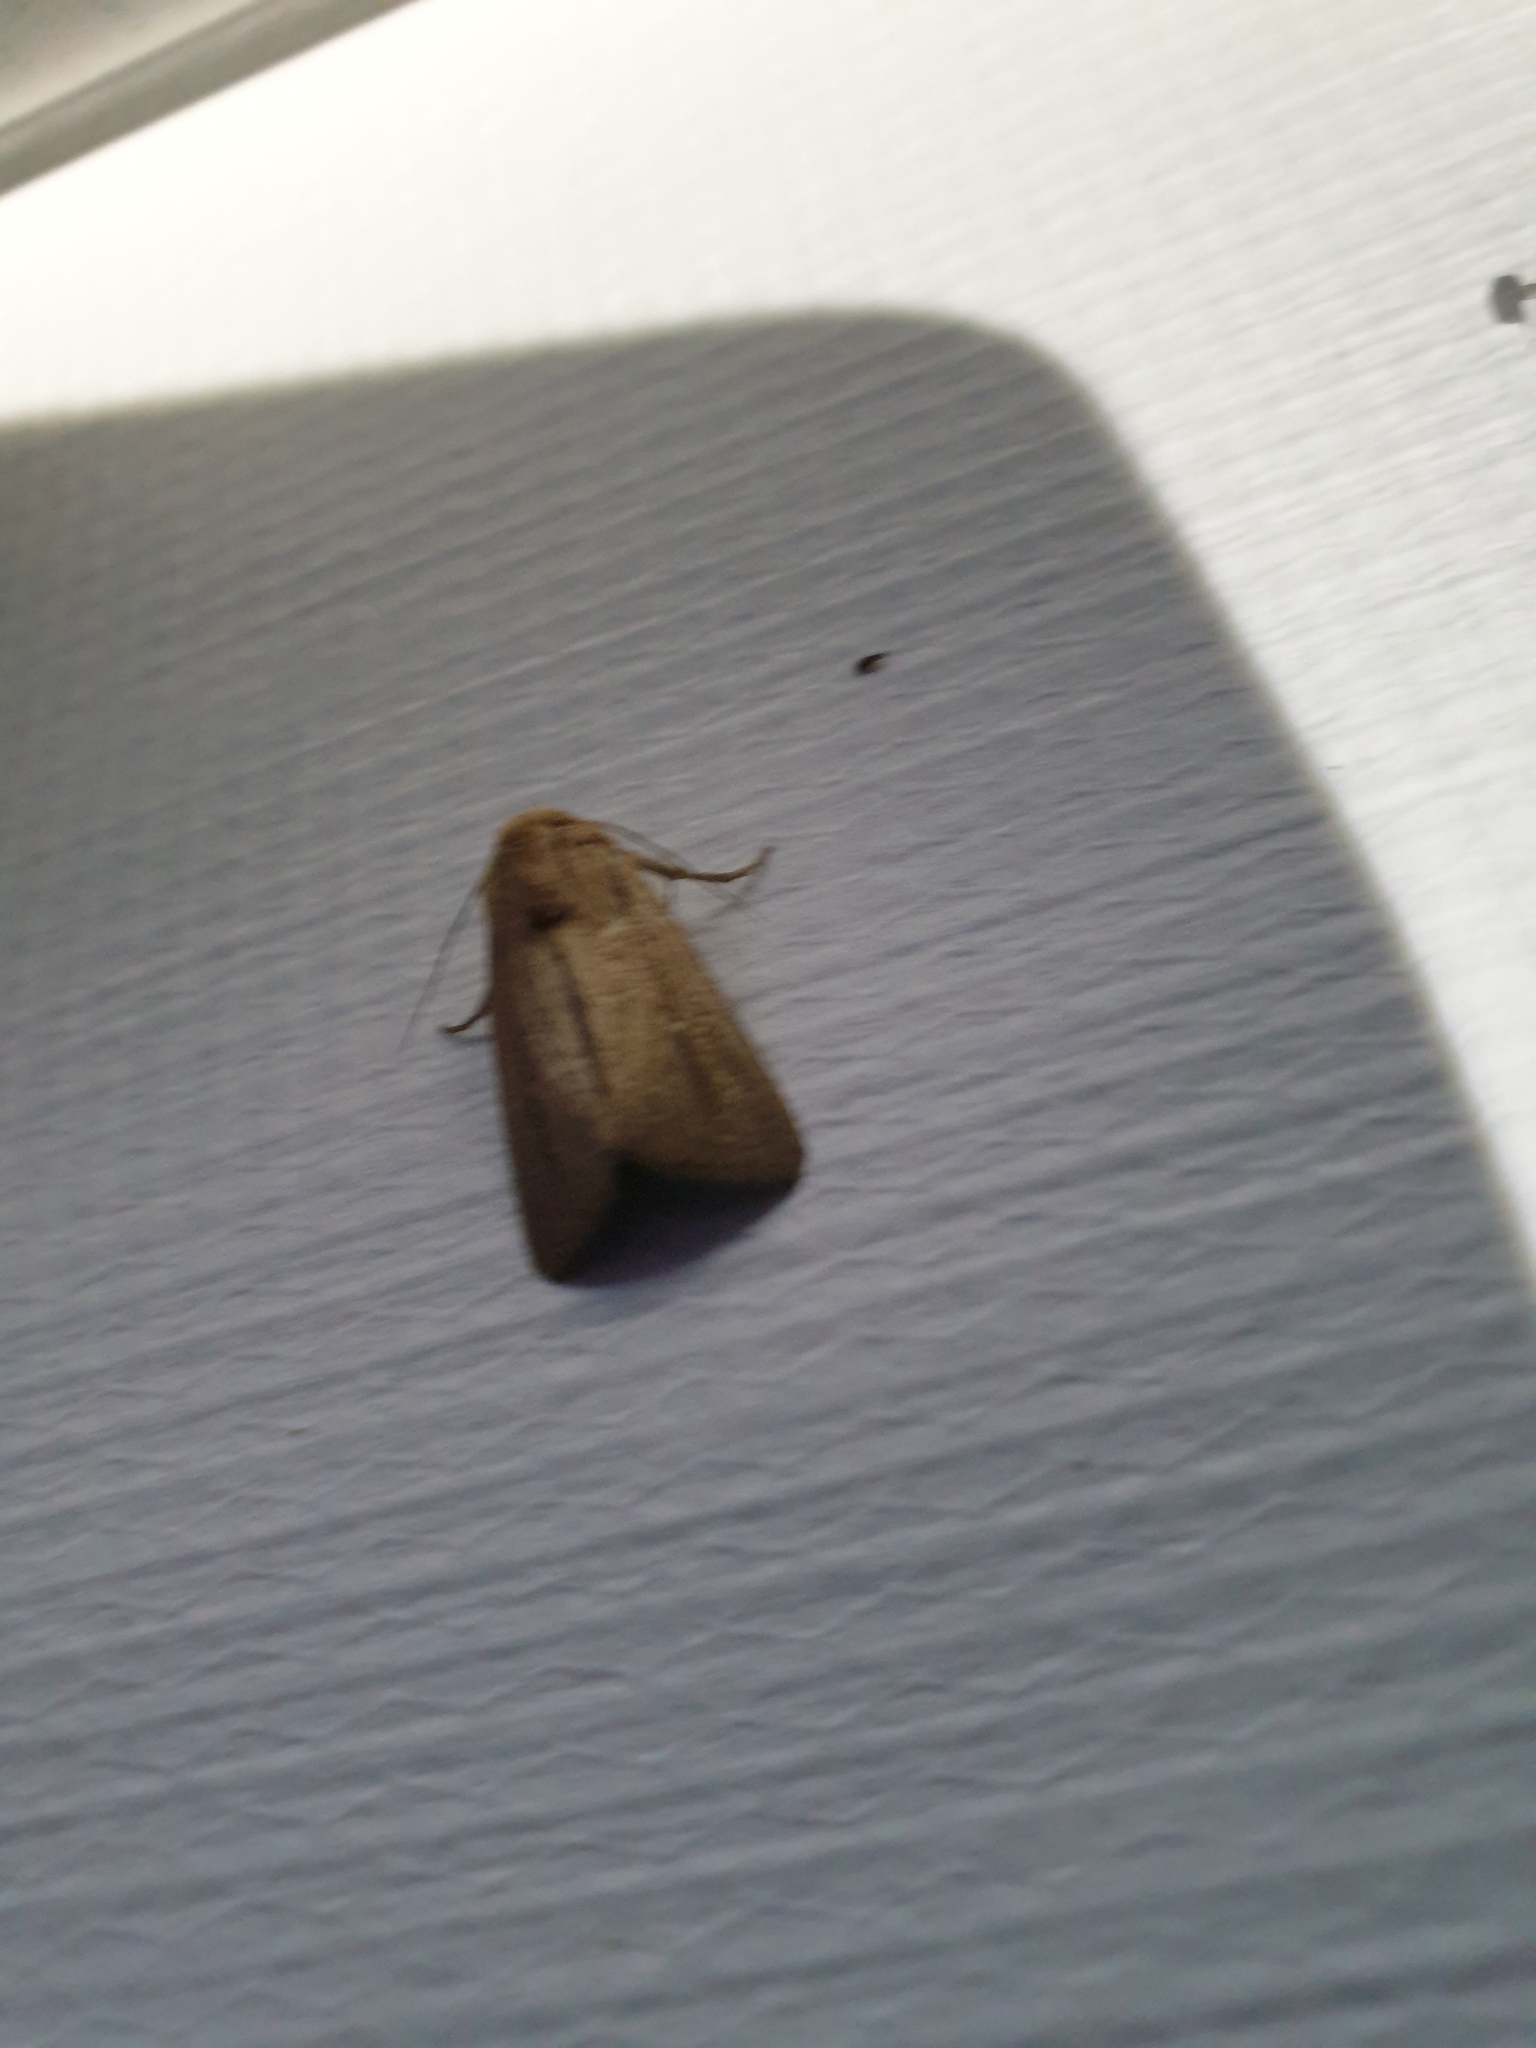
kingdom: Animalia
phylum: Arthropoda
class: Insecta
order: Lepidoptera
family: Noctuidae
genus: Leucania
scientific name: Leucania diatrecta
